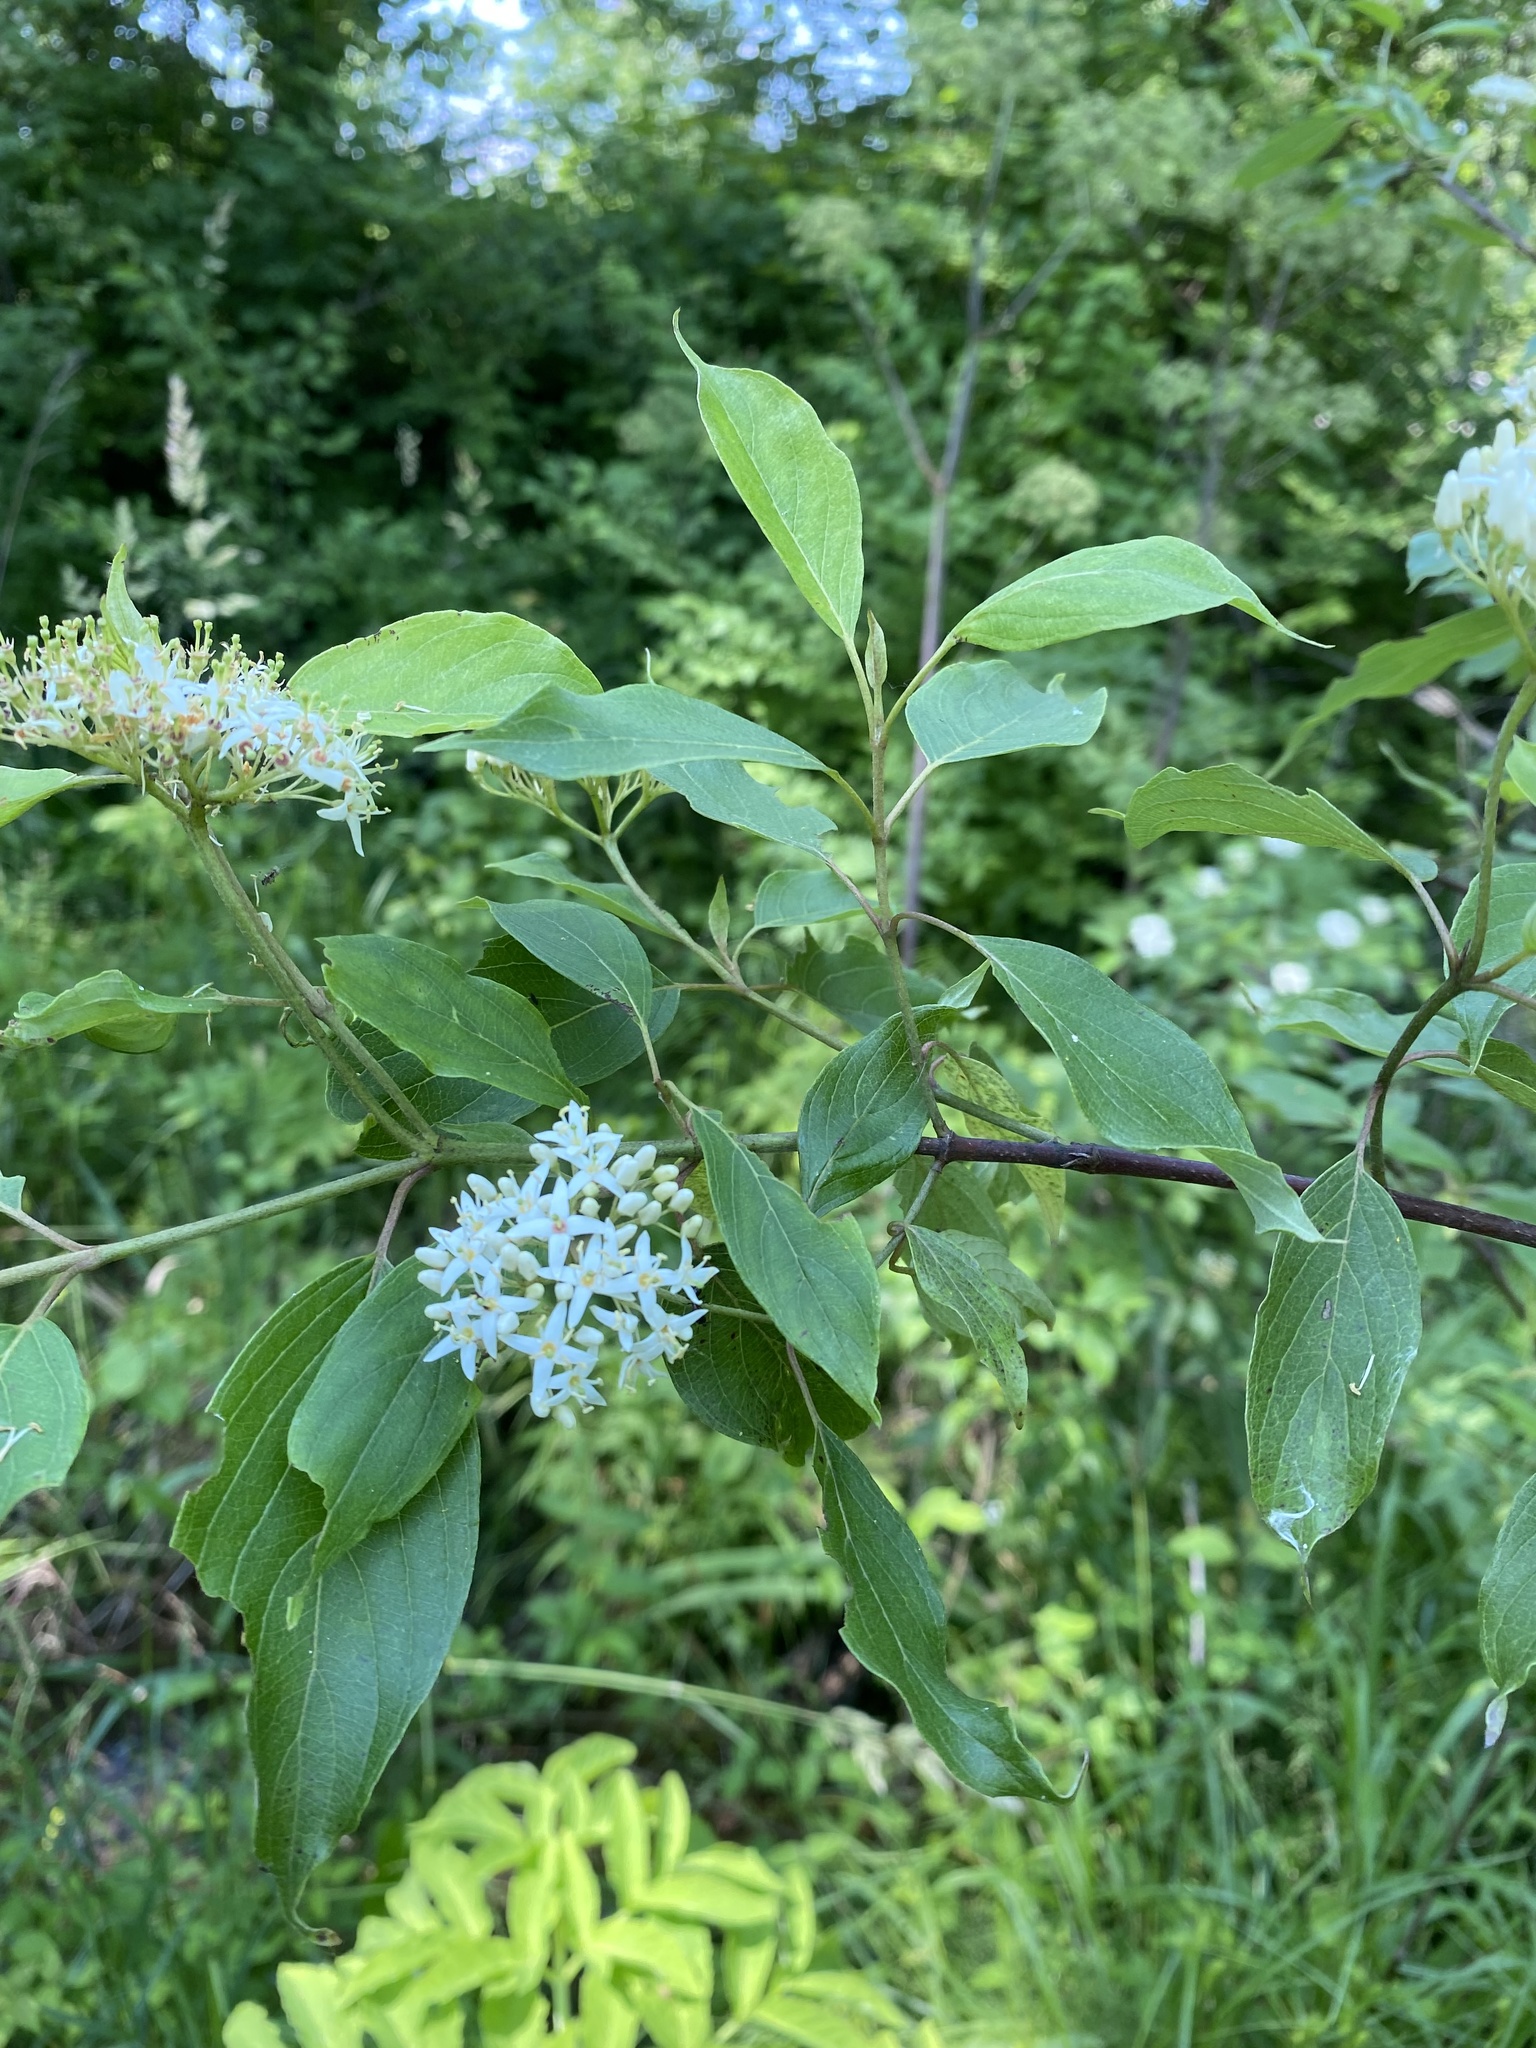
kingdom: Plantae
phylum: Tracheophyta
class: Magnoliopsida
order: Cornales
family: Cornaceae
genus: Cornus
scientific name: Cornus amomum
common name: Silky dogwood
